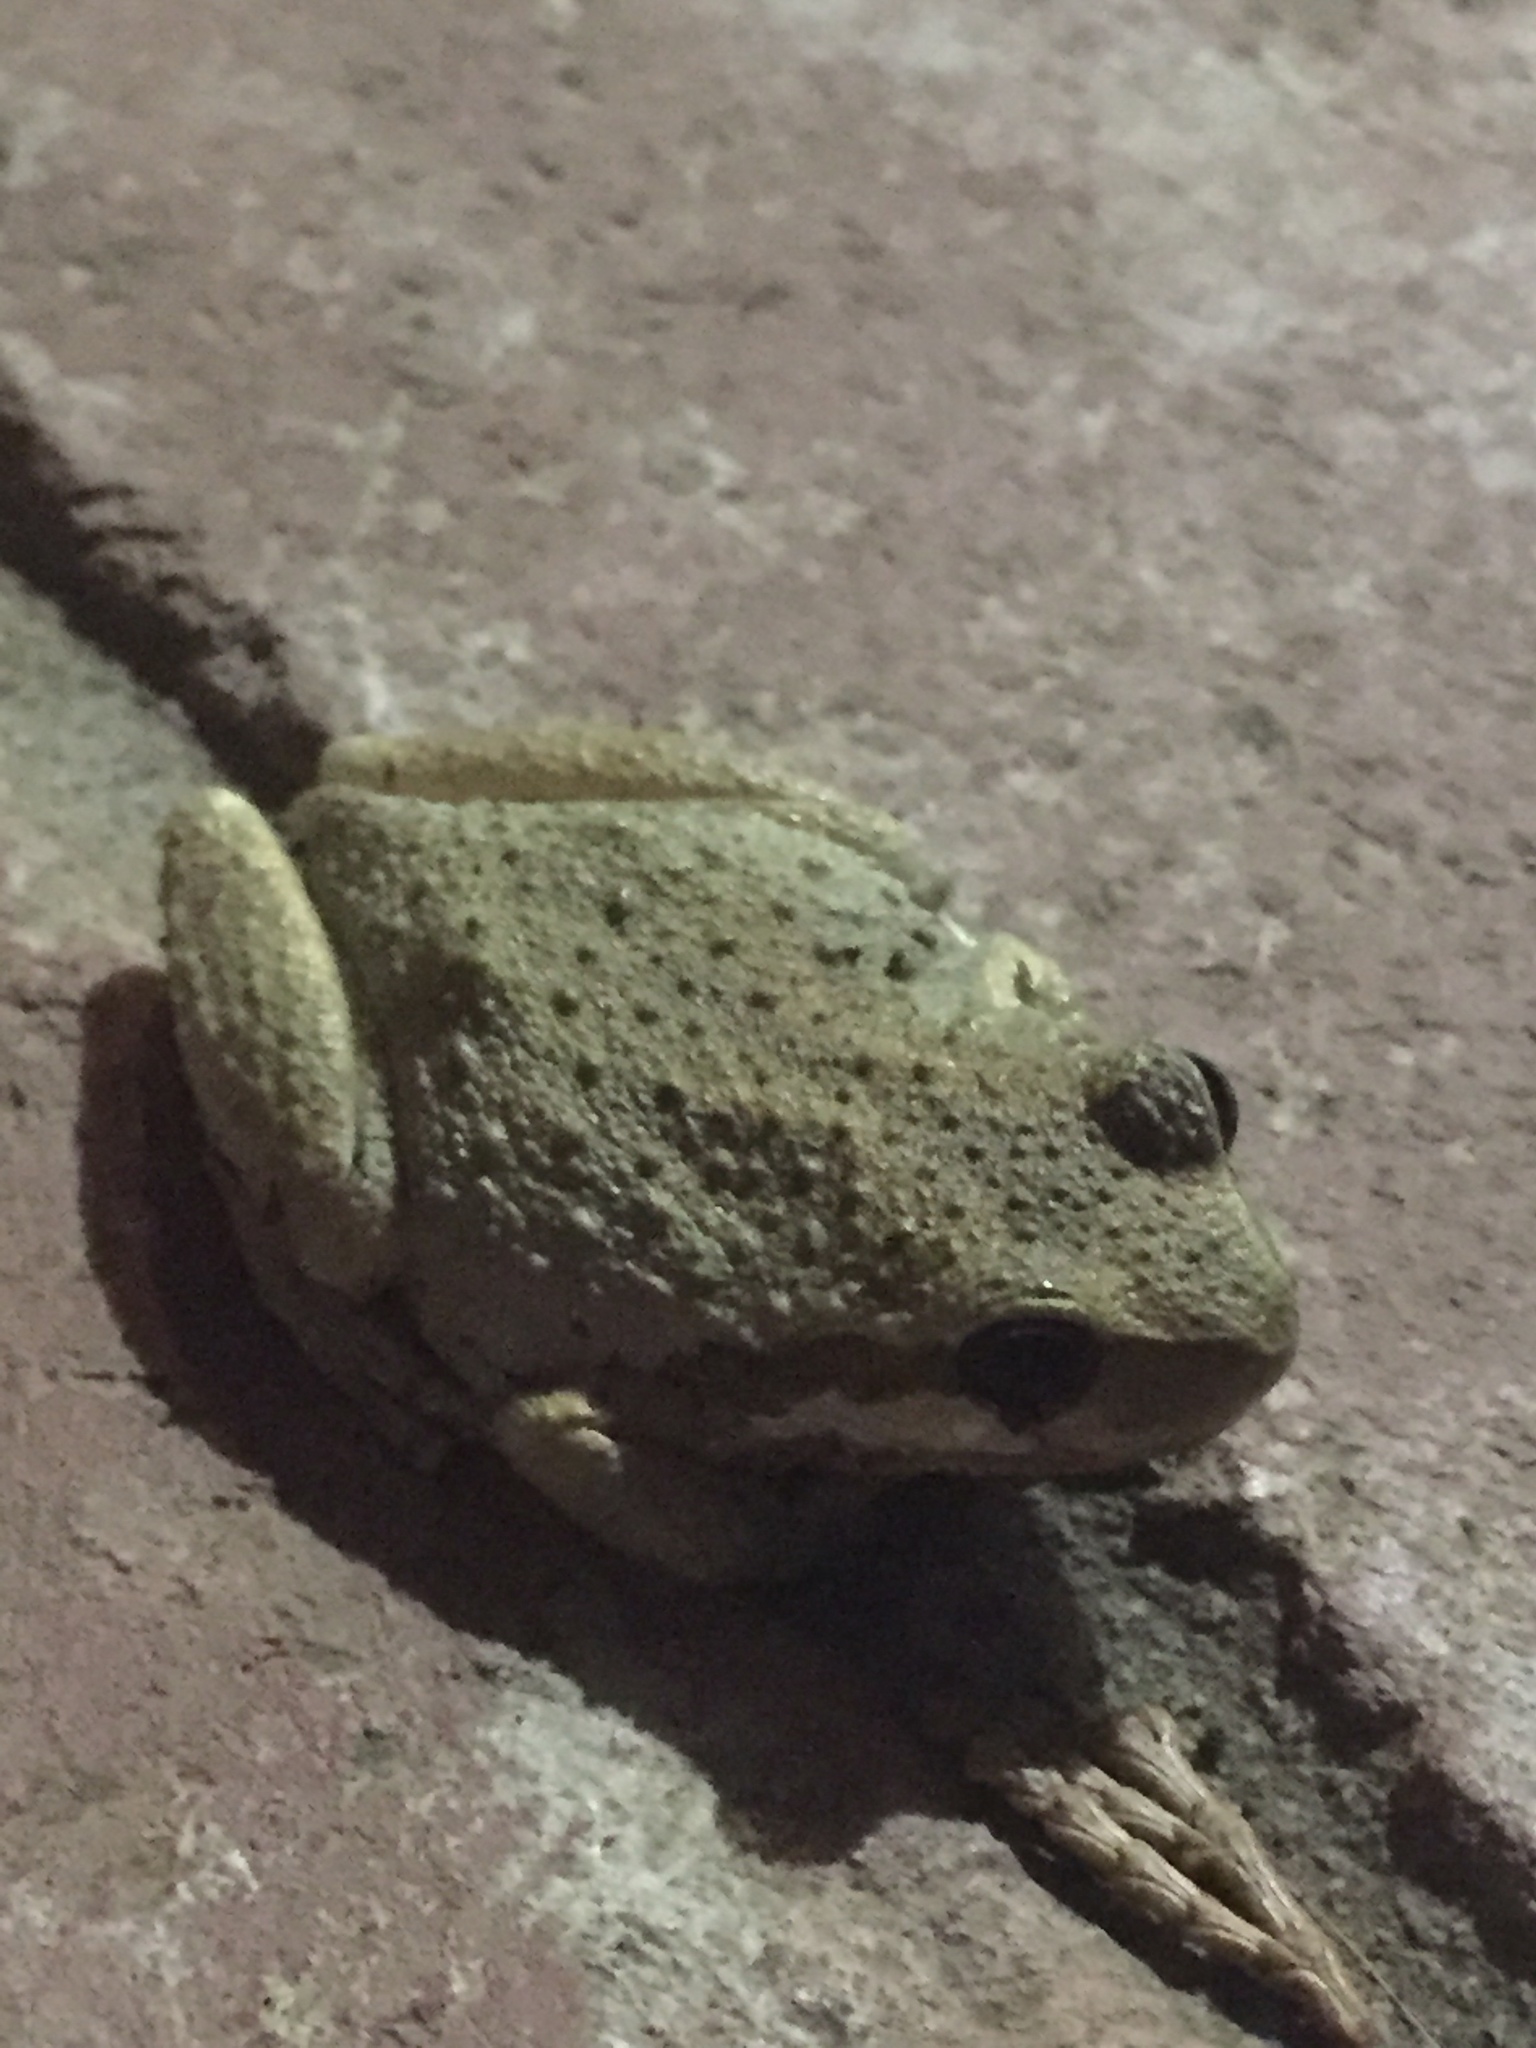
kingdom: Animalia
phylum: Chordata
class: Amphibia
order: Anura
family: Hylidae
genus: Pseudacris
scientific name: Pseudacris regilla
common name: Pacific chorus frog
